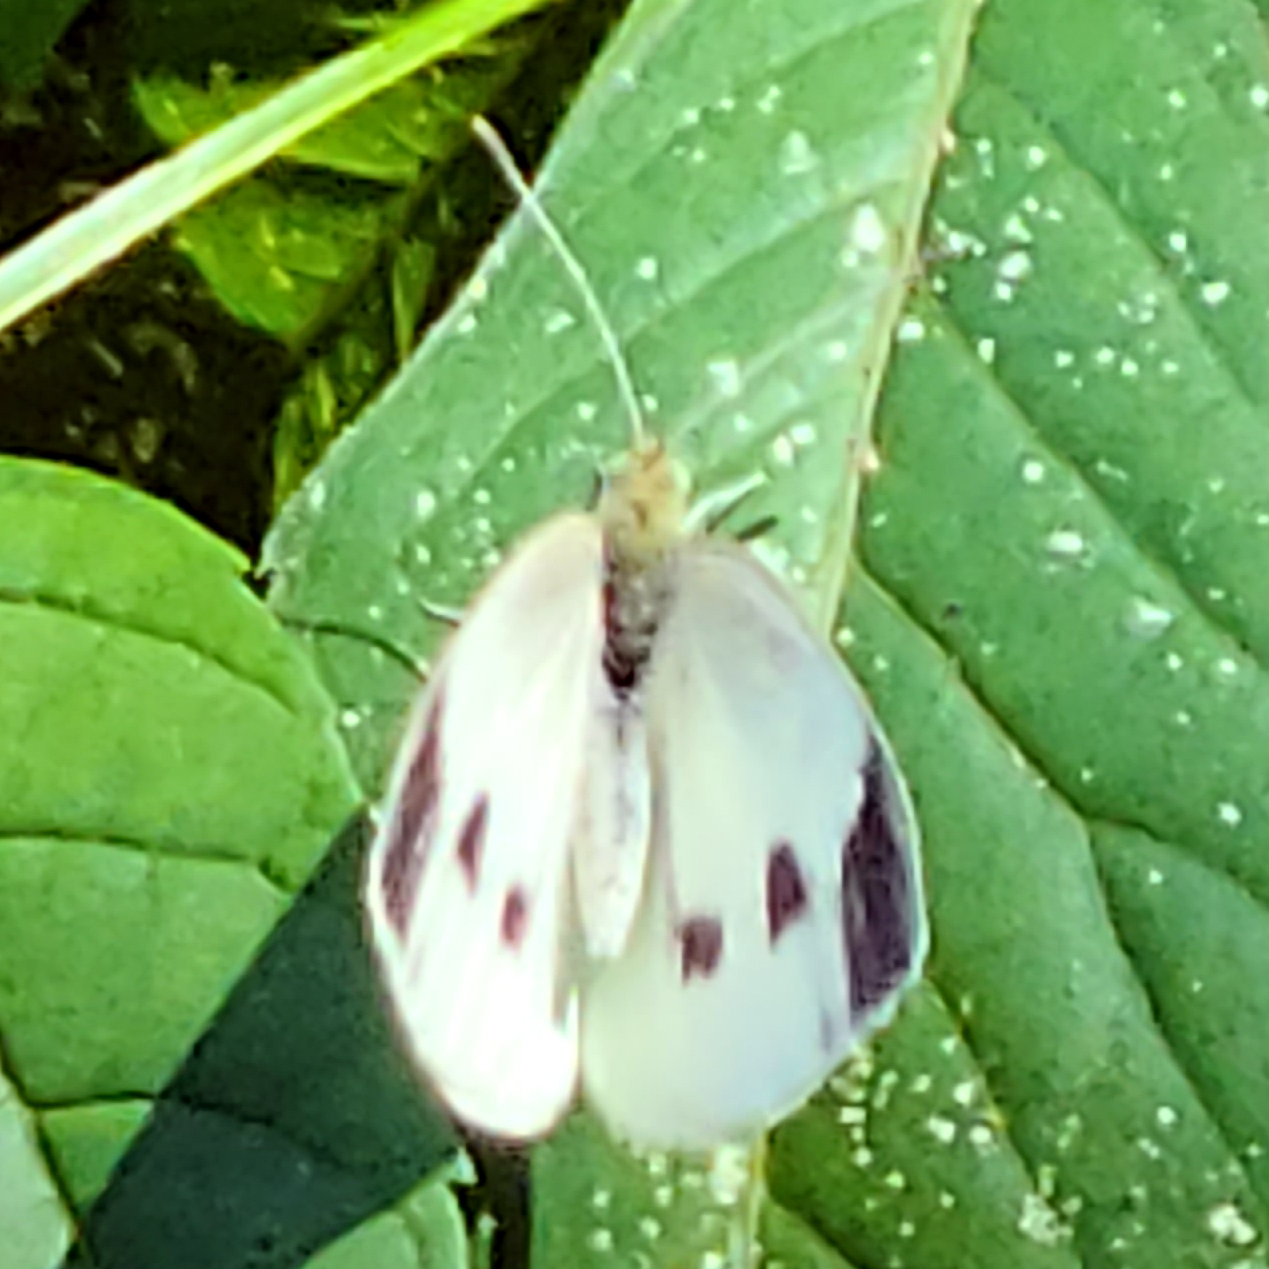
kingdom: Animalia
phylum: Arthropoda
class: Insecta
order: Lepidoptera
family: Pieridae
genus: Pieris
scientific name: Pieris rapae
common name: Small white
